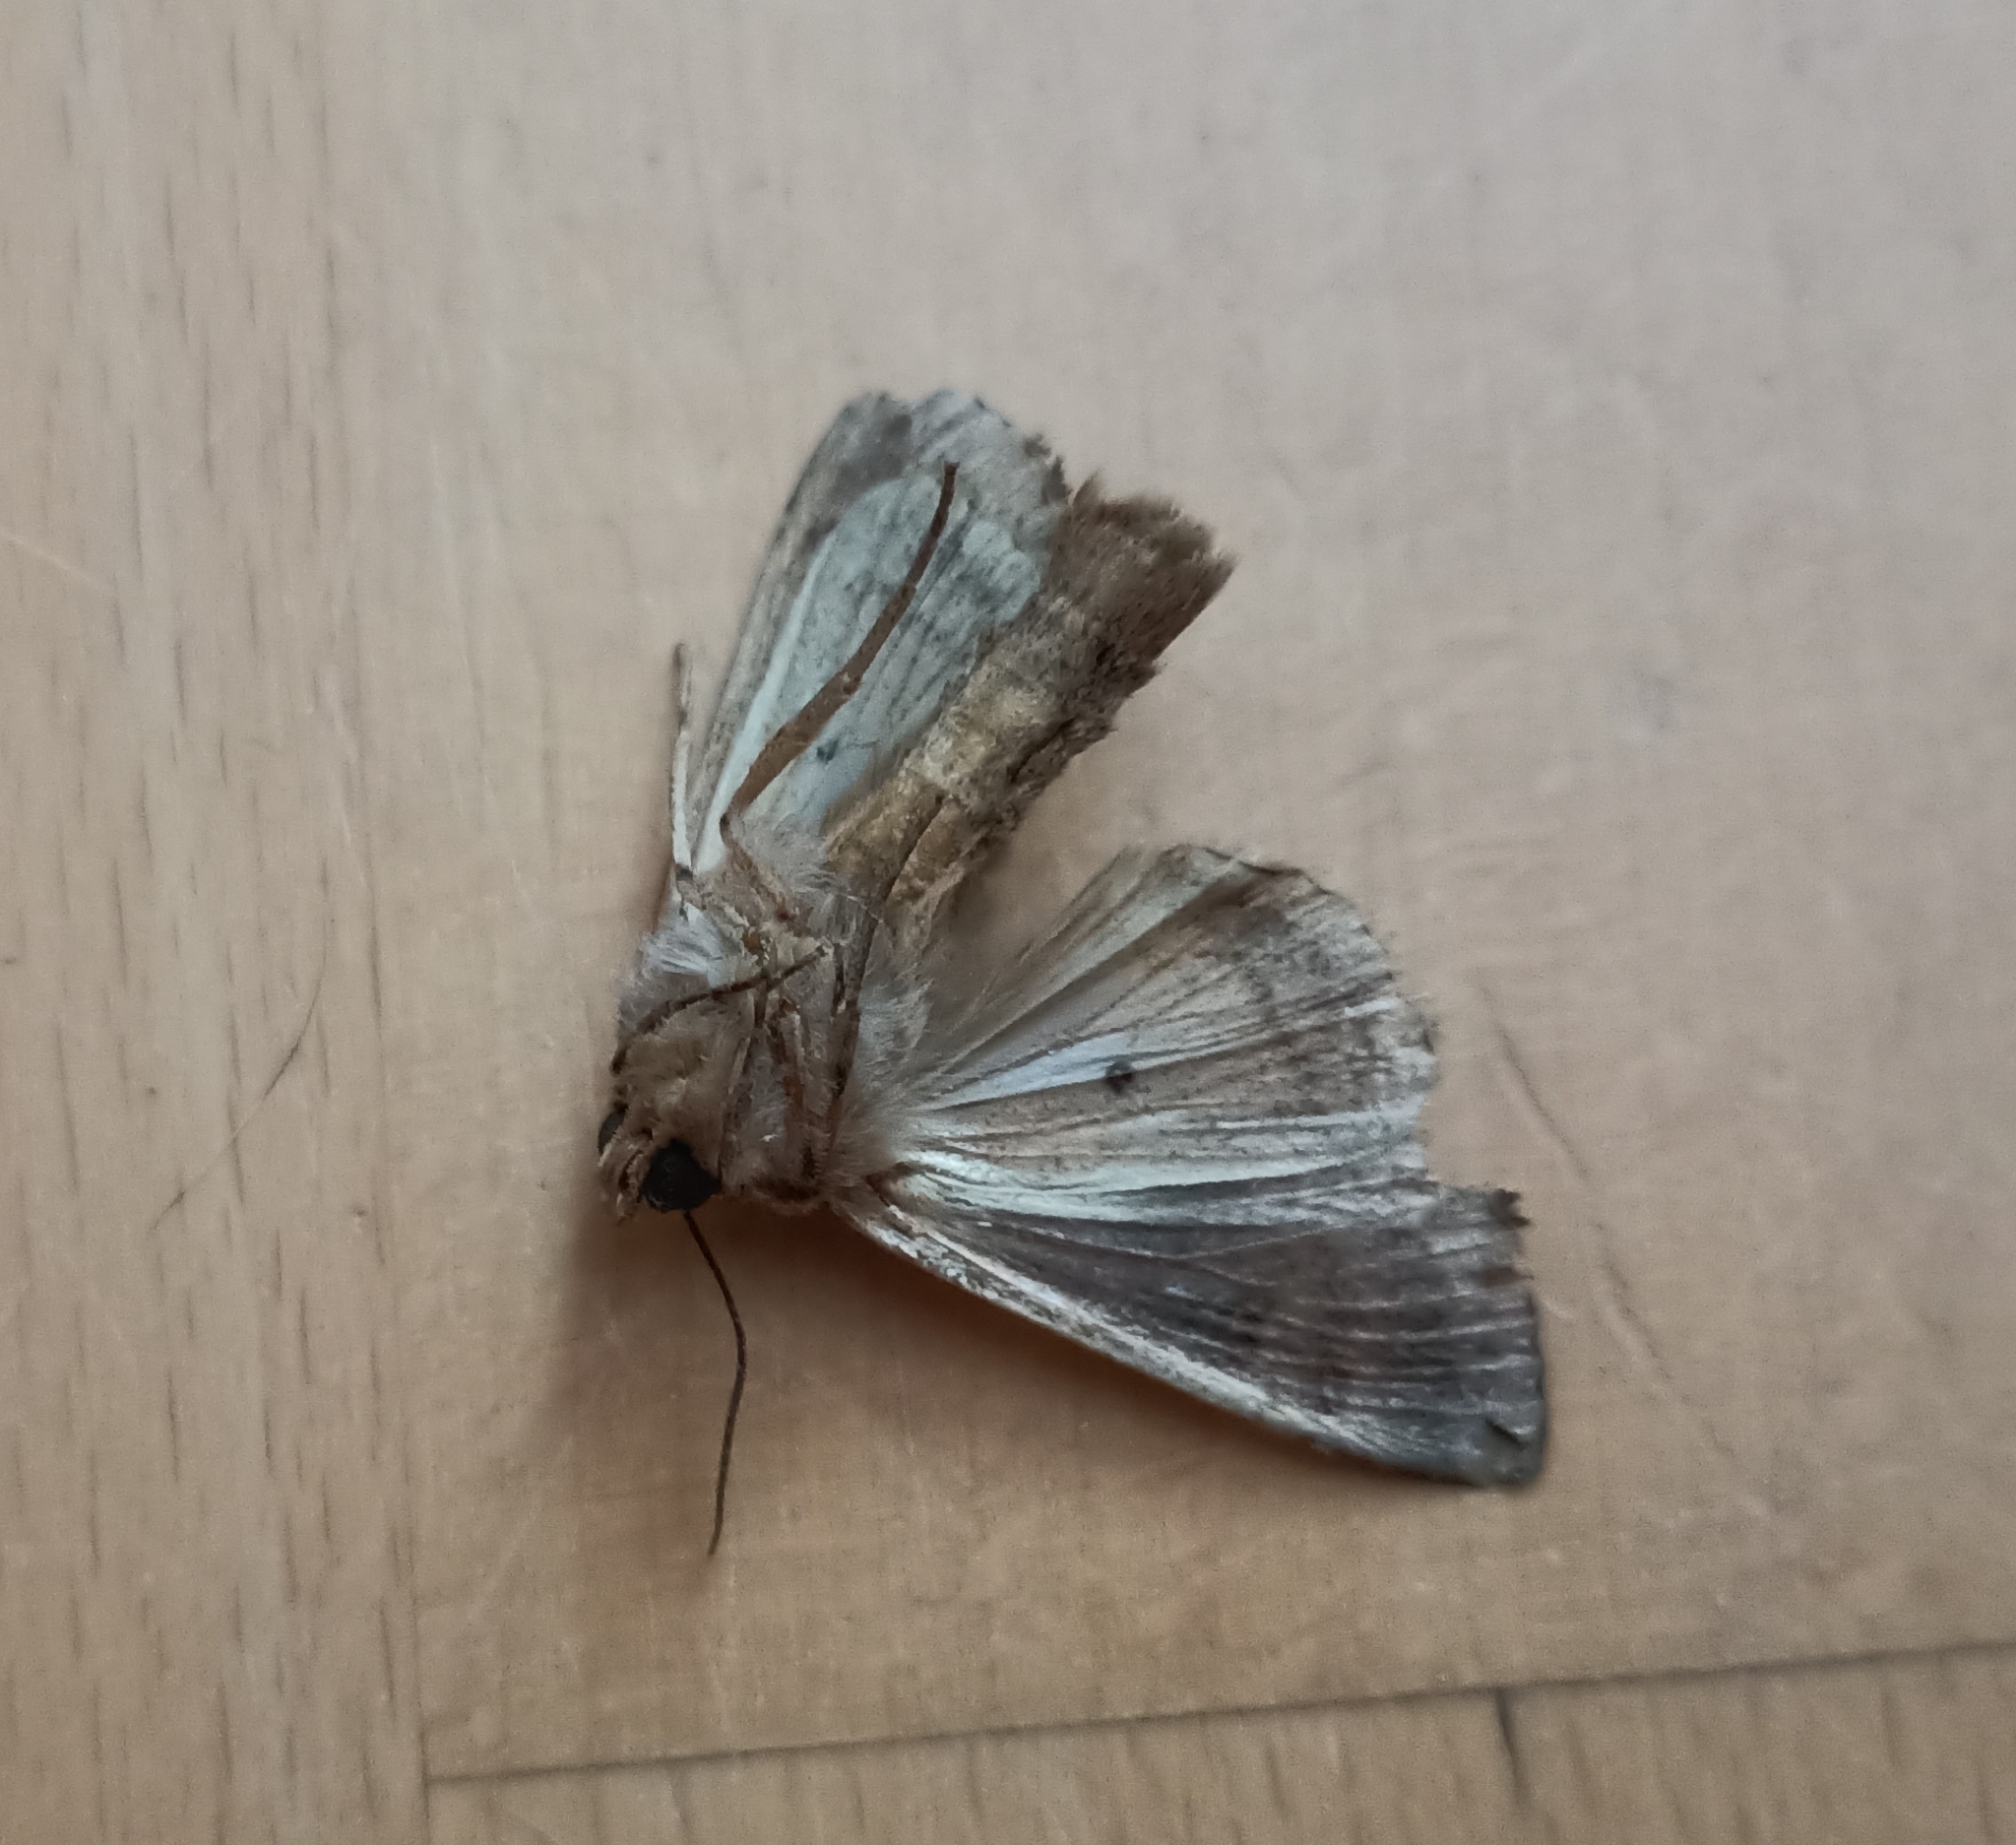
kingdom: Animalia
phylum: Arthropoda
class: Insecta
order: Lepidoptera
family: Noctuidae
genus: Apamea
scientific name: Apamea monoglypha
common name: Dark arches
